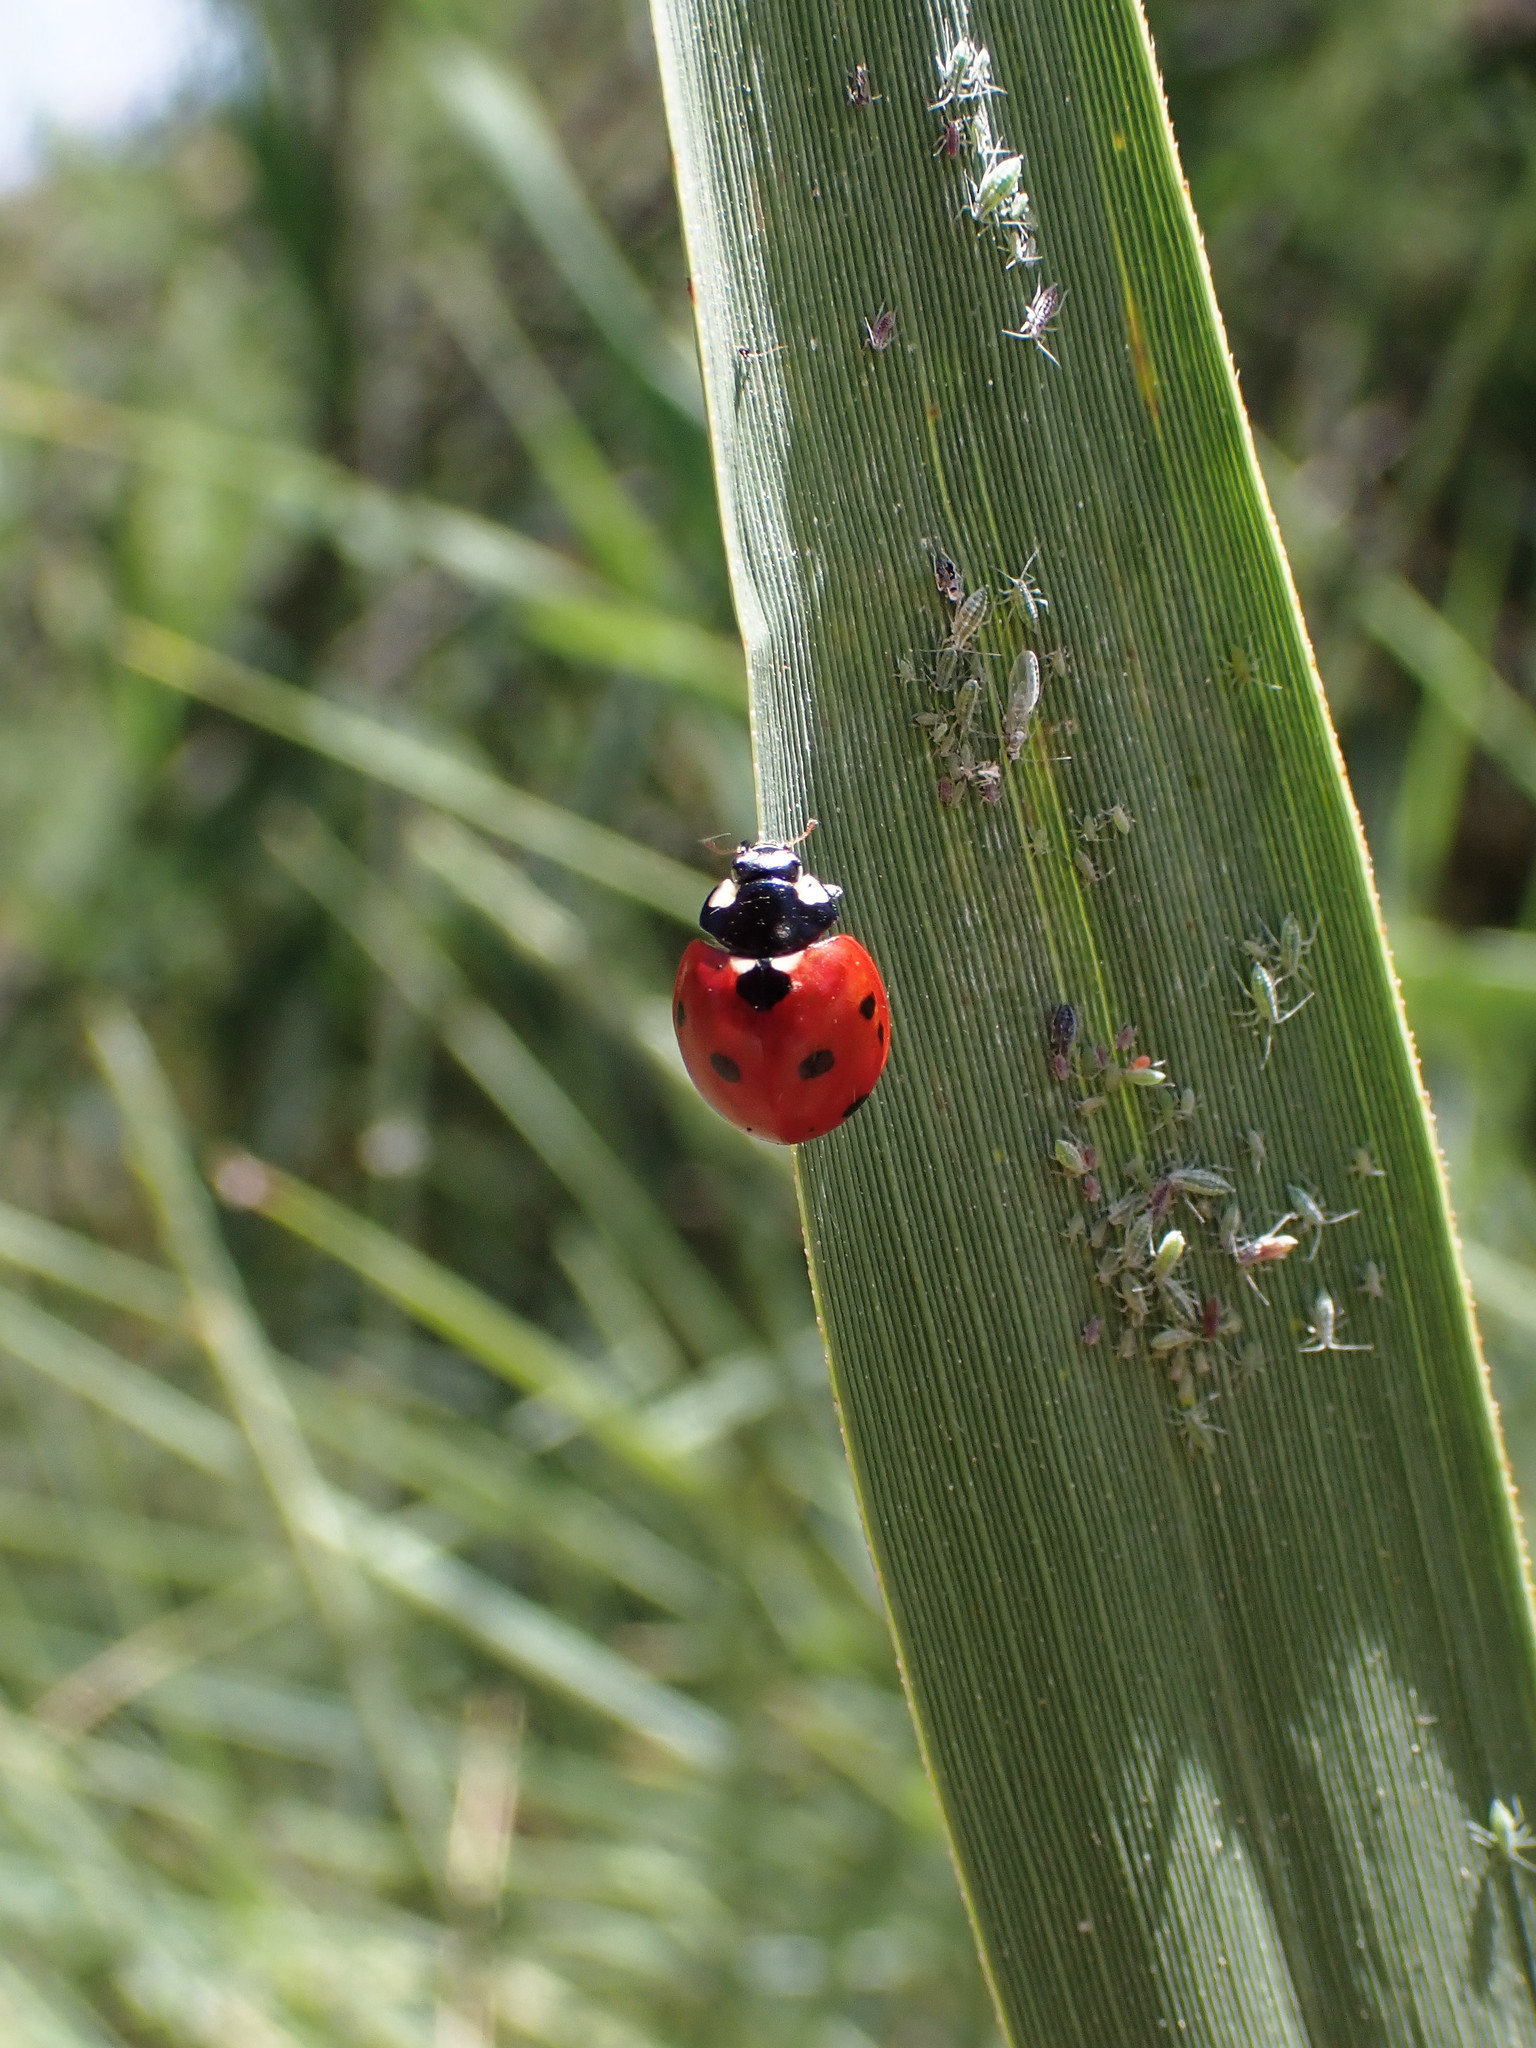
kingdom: Animalia
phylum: Arthropoda
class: Insecta
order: Coleoptera
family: Coccinellidae
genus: Coccinella
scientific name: Coccinella septempunctata
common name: Sevenspotted lady beetle
